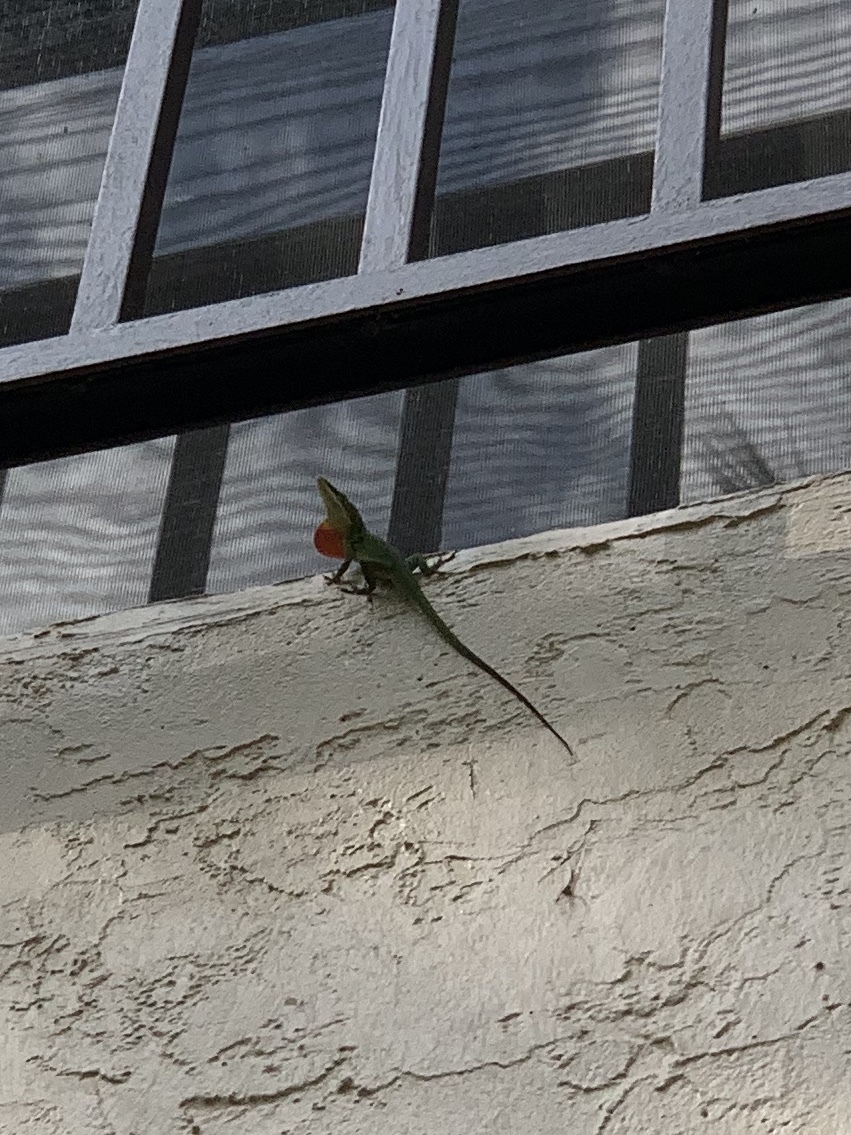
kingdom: Animalia
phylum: Chordata
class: Squamata
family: Dactyloidae
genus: Anolis
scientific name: Anolis carolinensis
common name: Green anole
